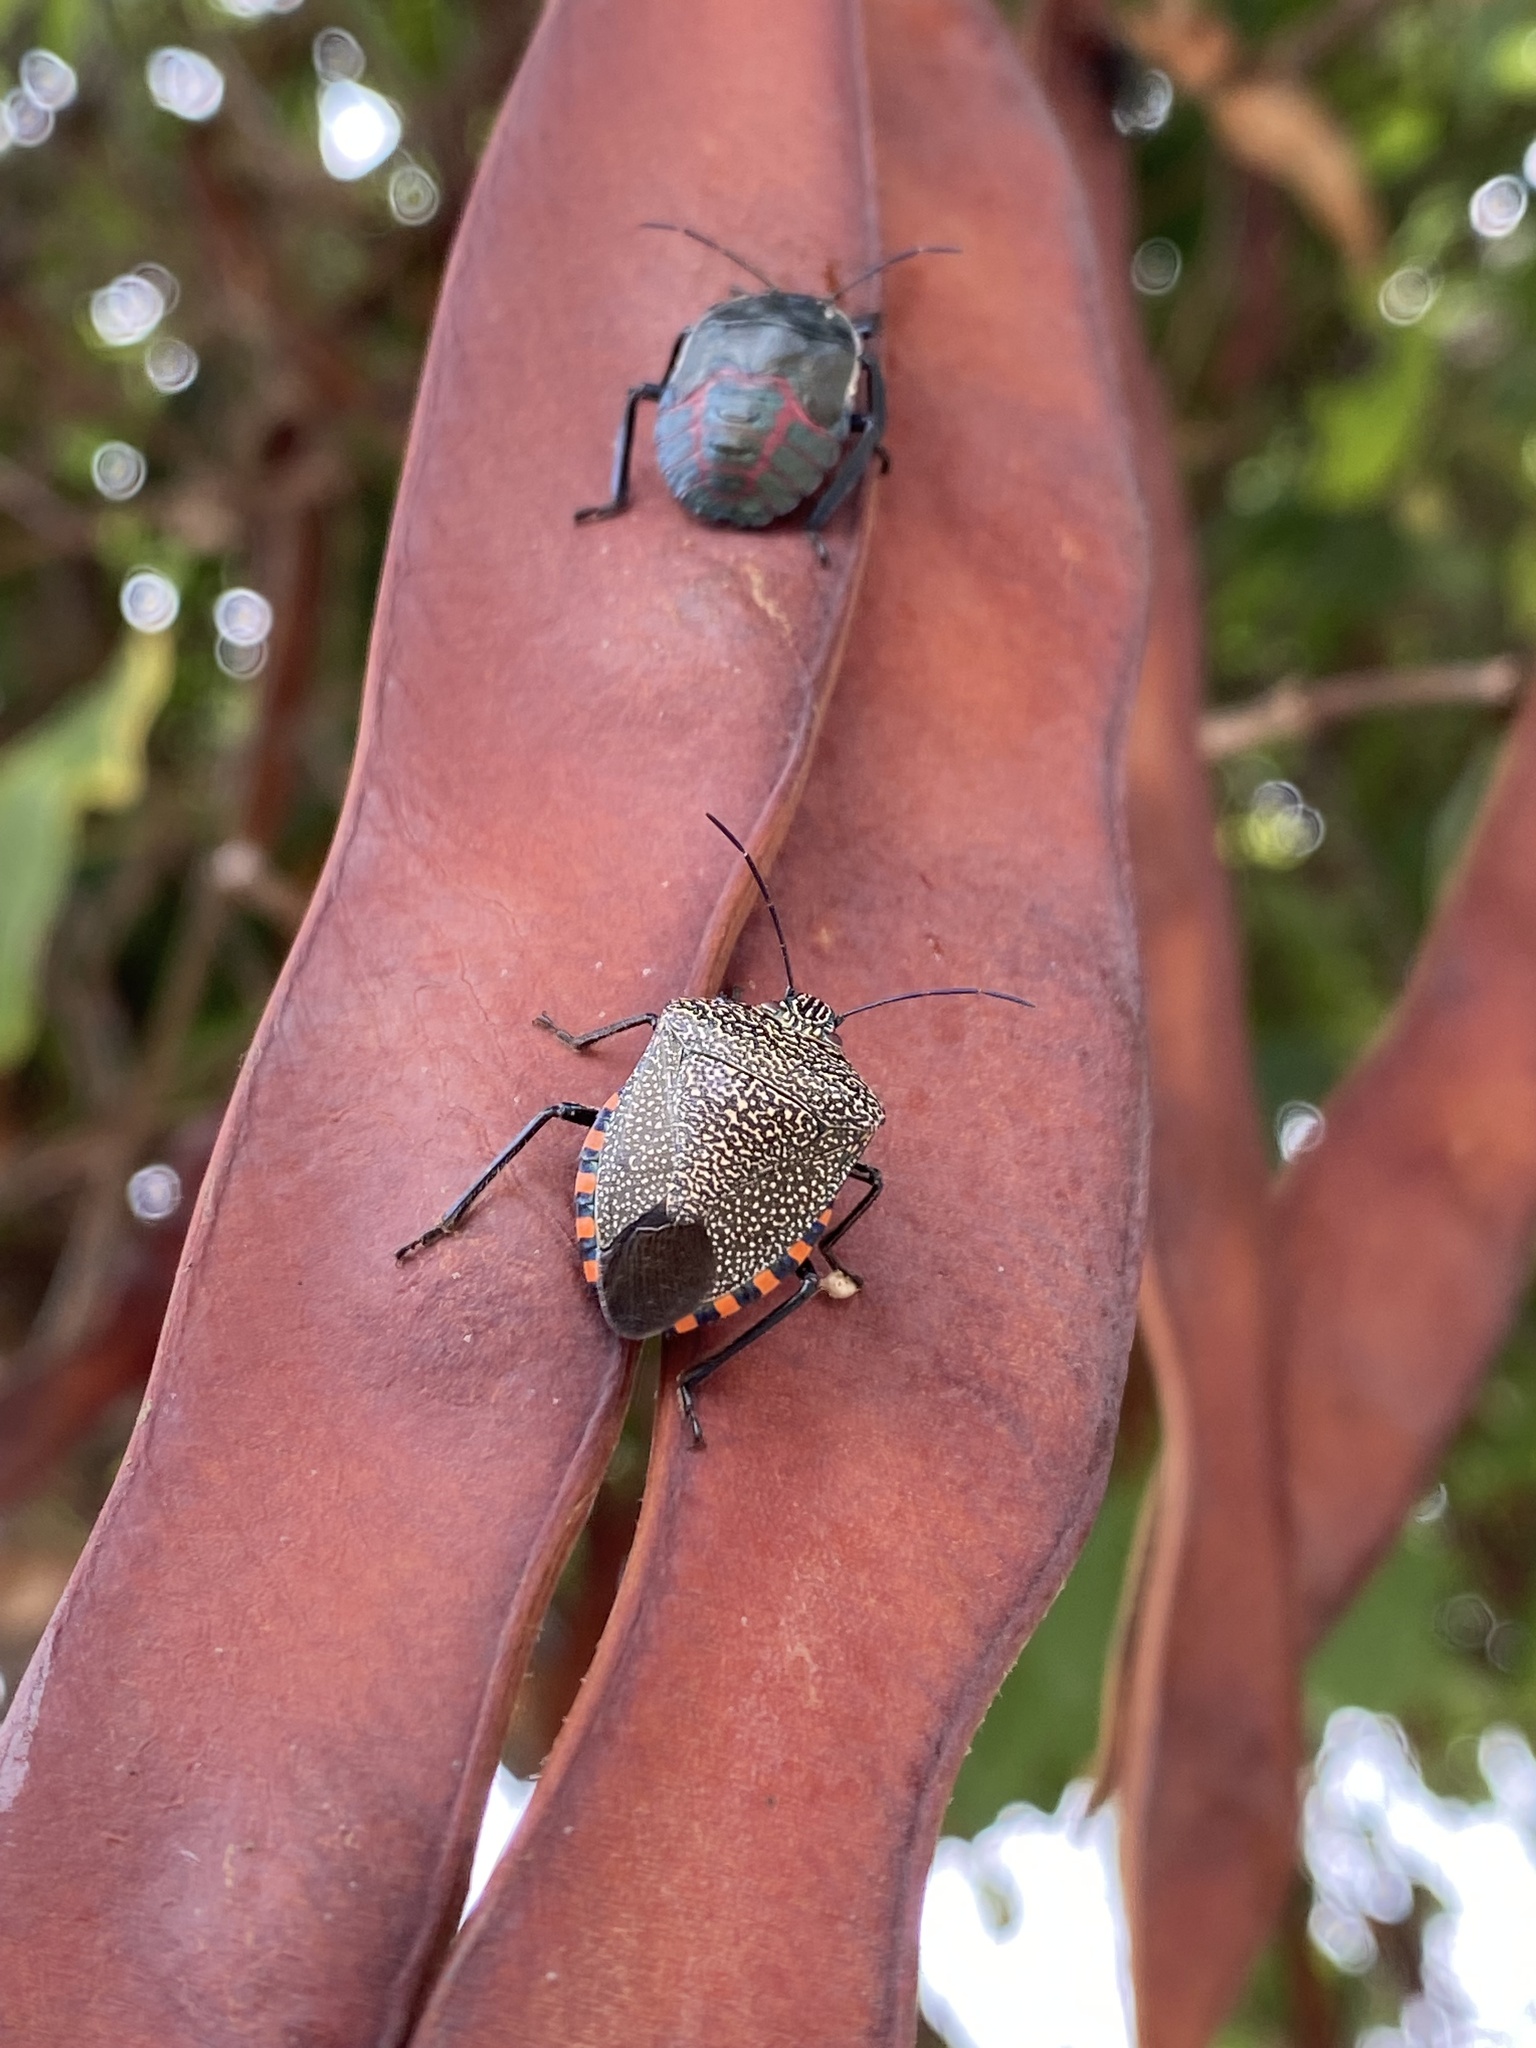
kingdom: Animalia
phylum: Arthropoda
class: Insecta
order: Hemiptera
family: Pentatomidae
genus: Pellaea
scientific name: Pellaea stictica
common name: Stink bug
